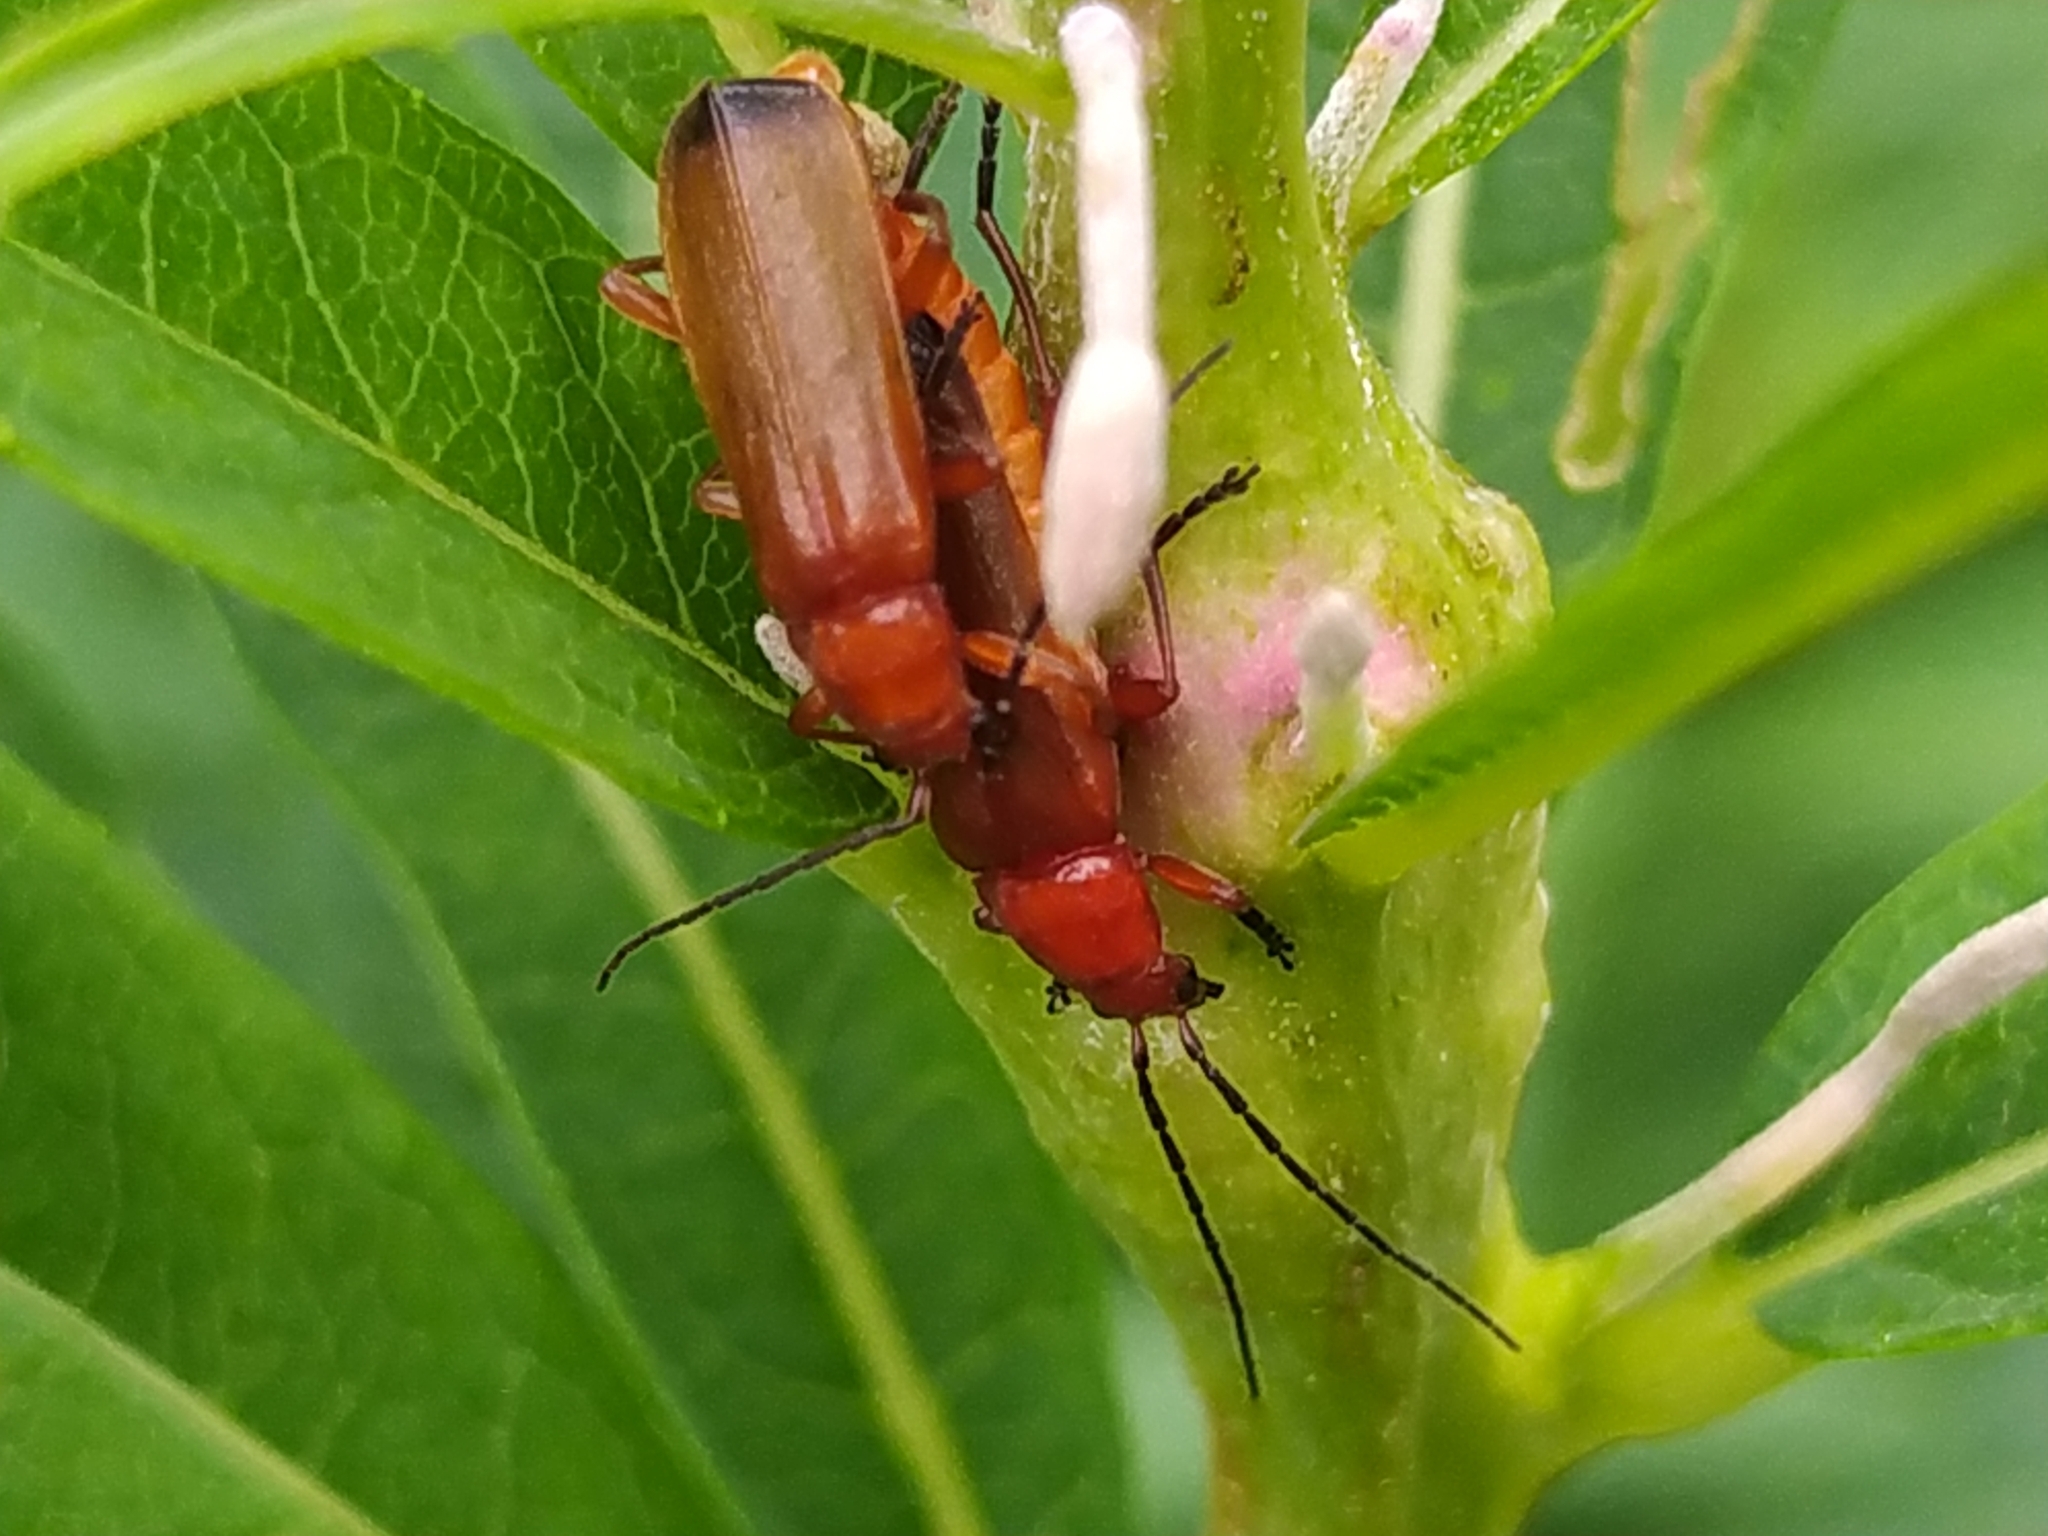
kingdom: Animalia
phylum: Arthropoda
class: Insecta
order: Coleoptera
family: Cantharidae
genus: Rhagonycha
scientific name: Rhagonycha fulva
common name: Common red soldier beetle
